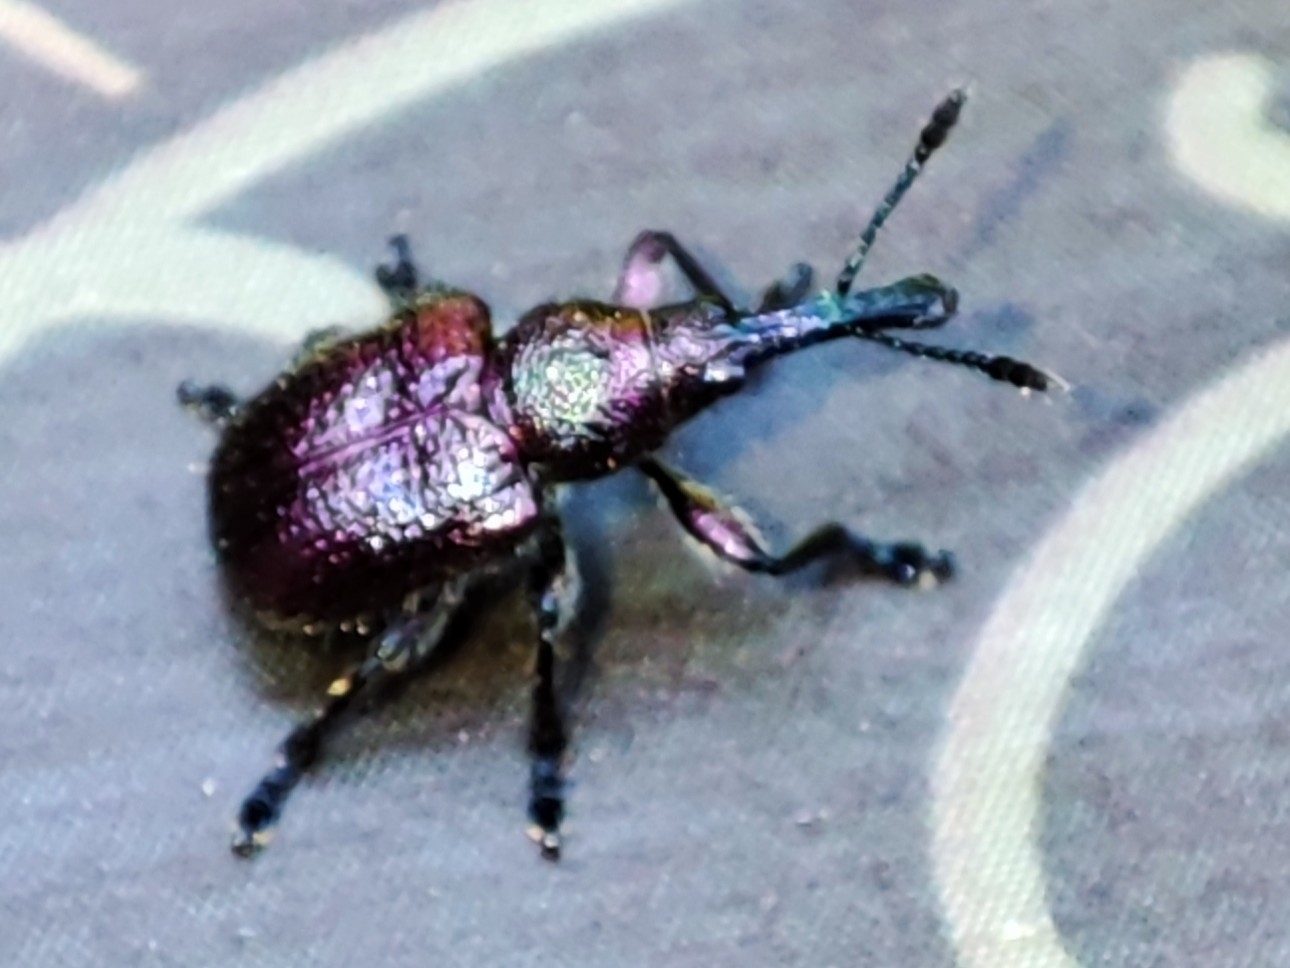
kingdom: Animalia
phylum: Arthropoda
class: Insecta
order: Coleoptera
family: Attelabidae
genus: Rhynchites
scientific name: Rhynchites bacchus
